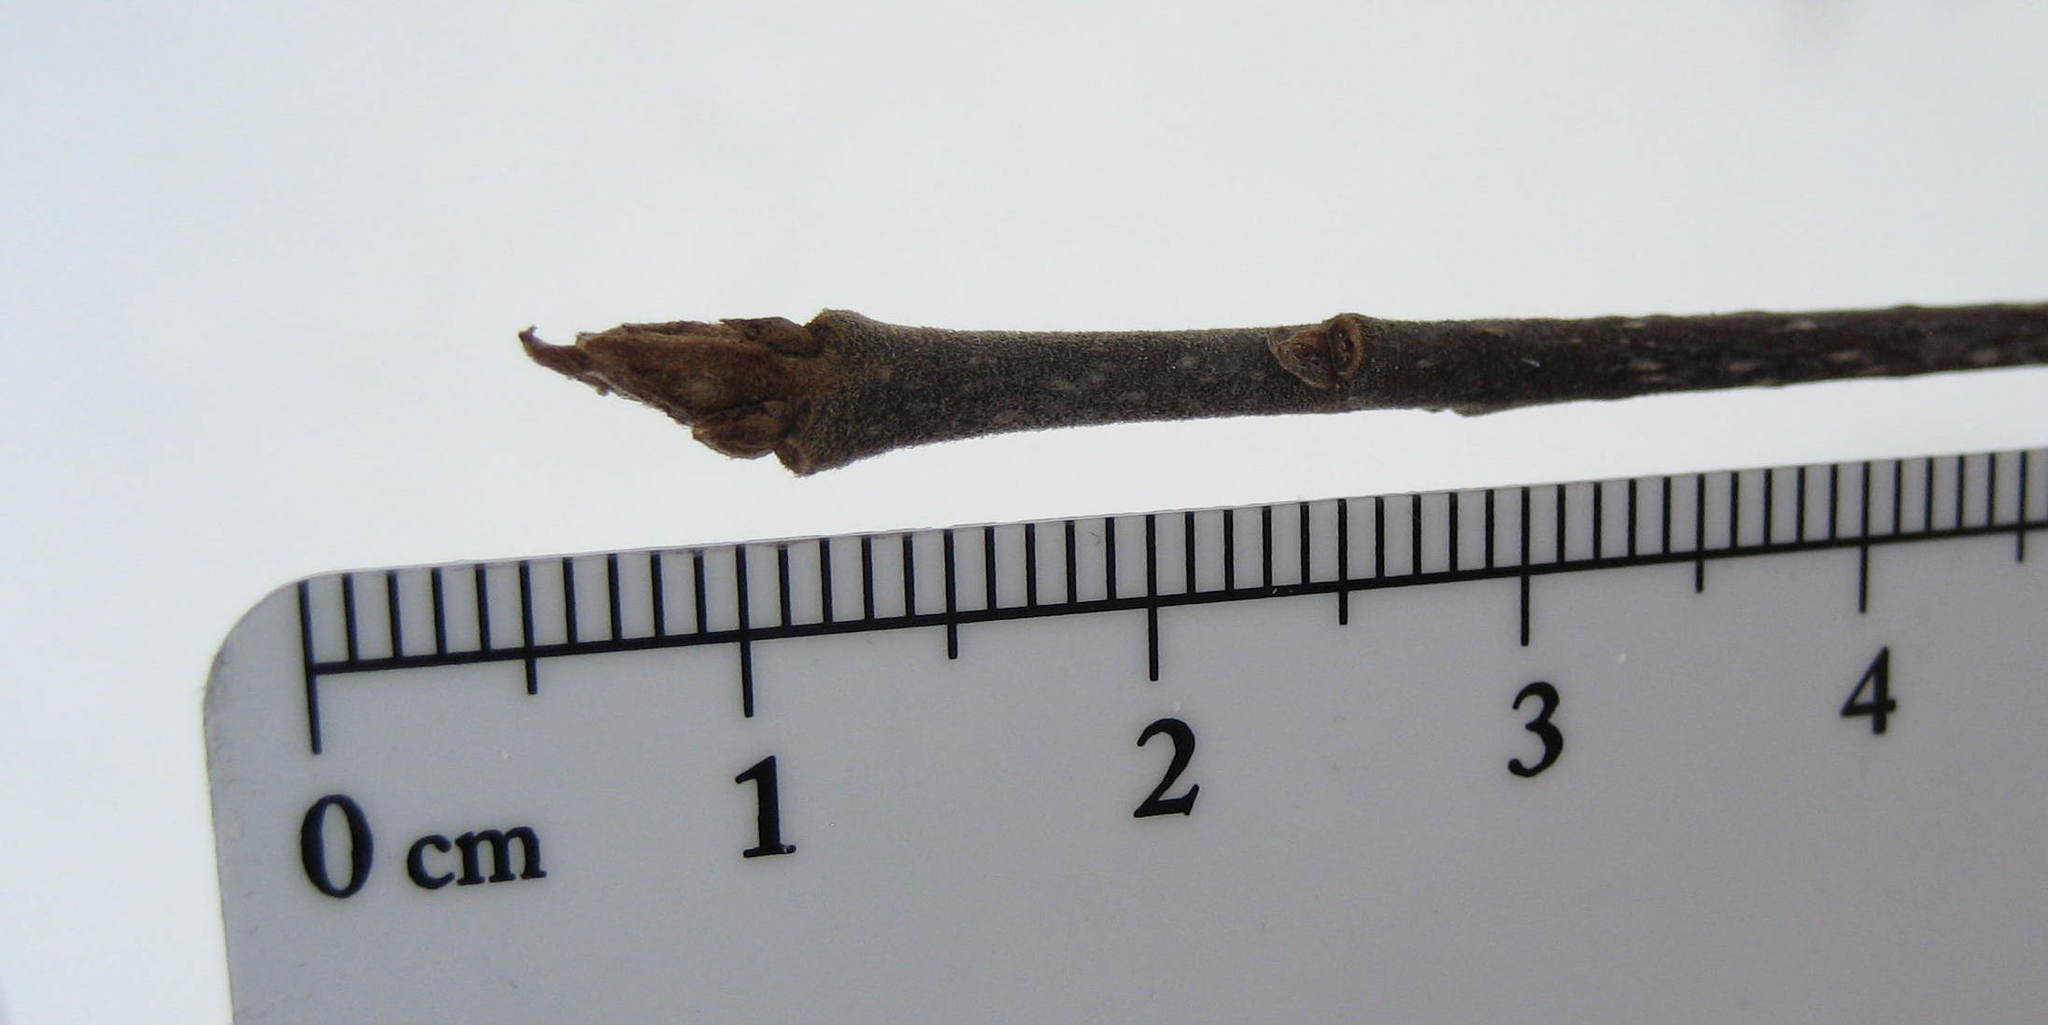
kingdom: Plantae
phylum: Tracheophyta
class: Magnoliopsida
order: Rosales
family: Rhamnaceae
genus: Frangula
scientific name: Frangula alnus
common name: Alder buckthorn
